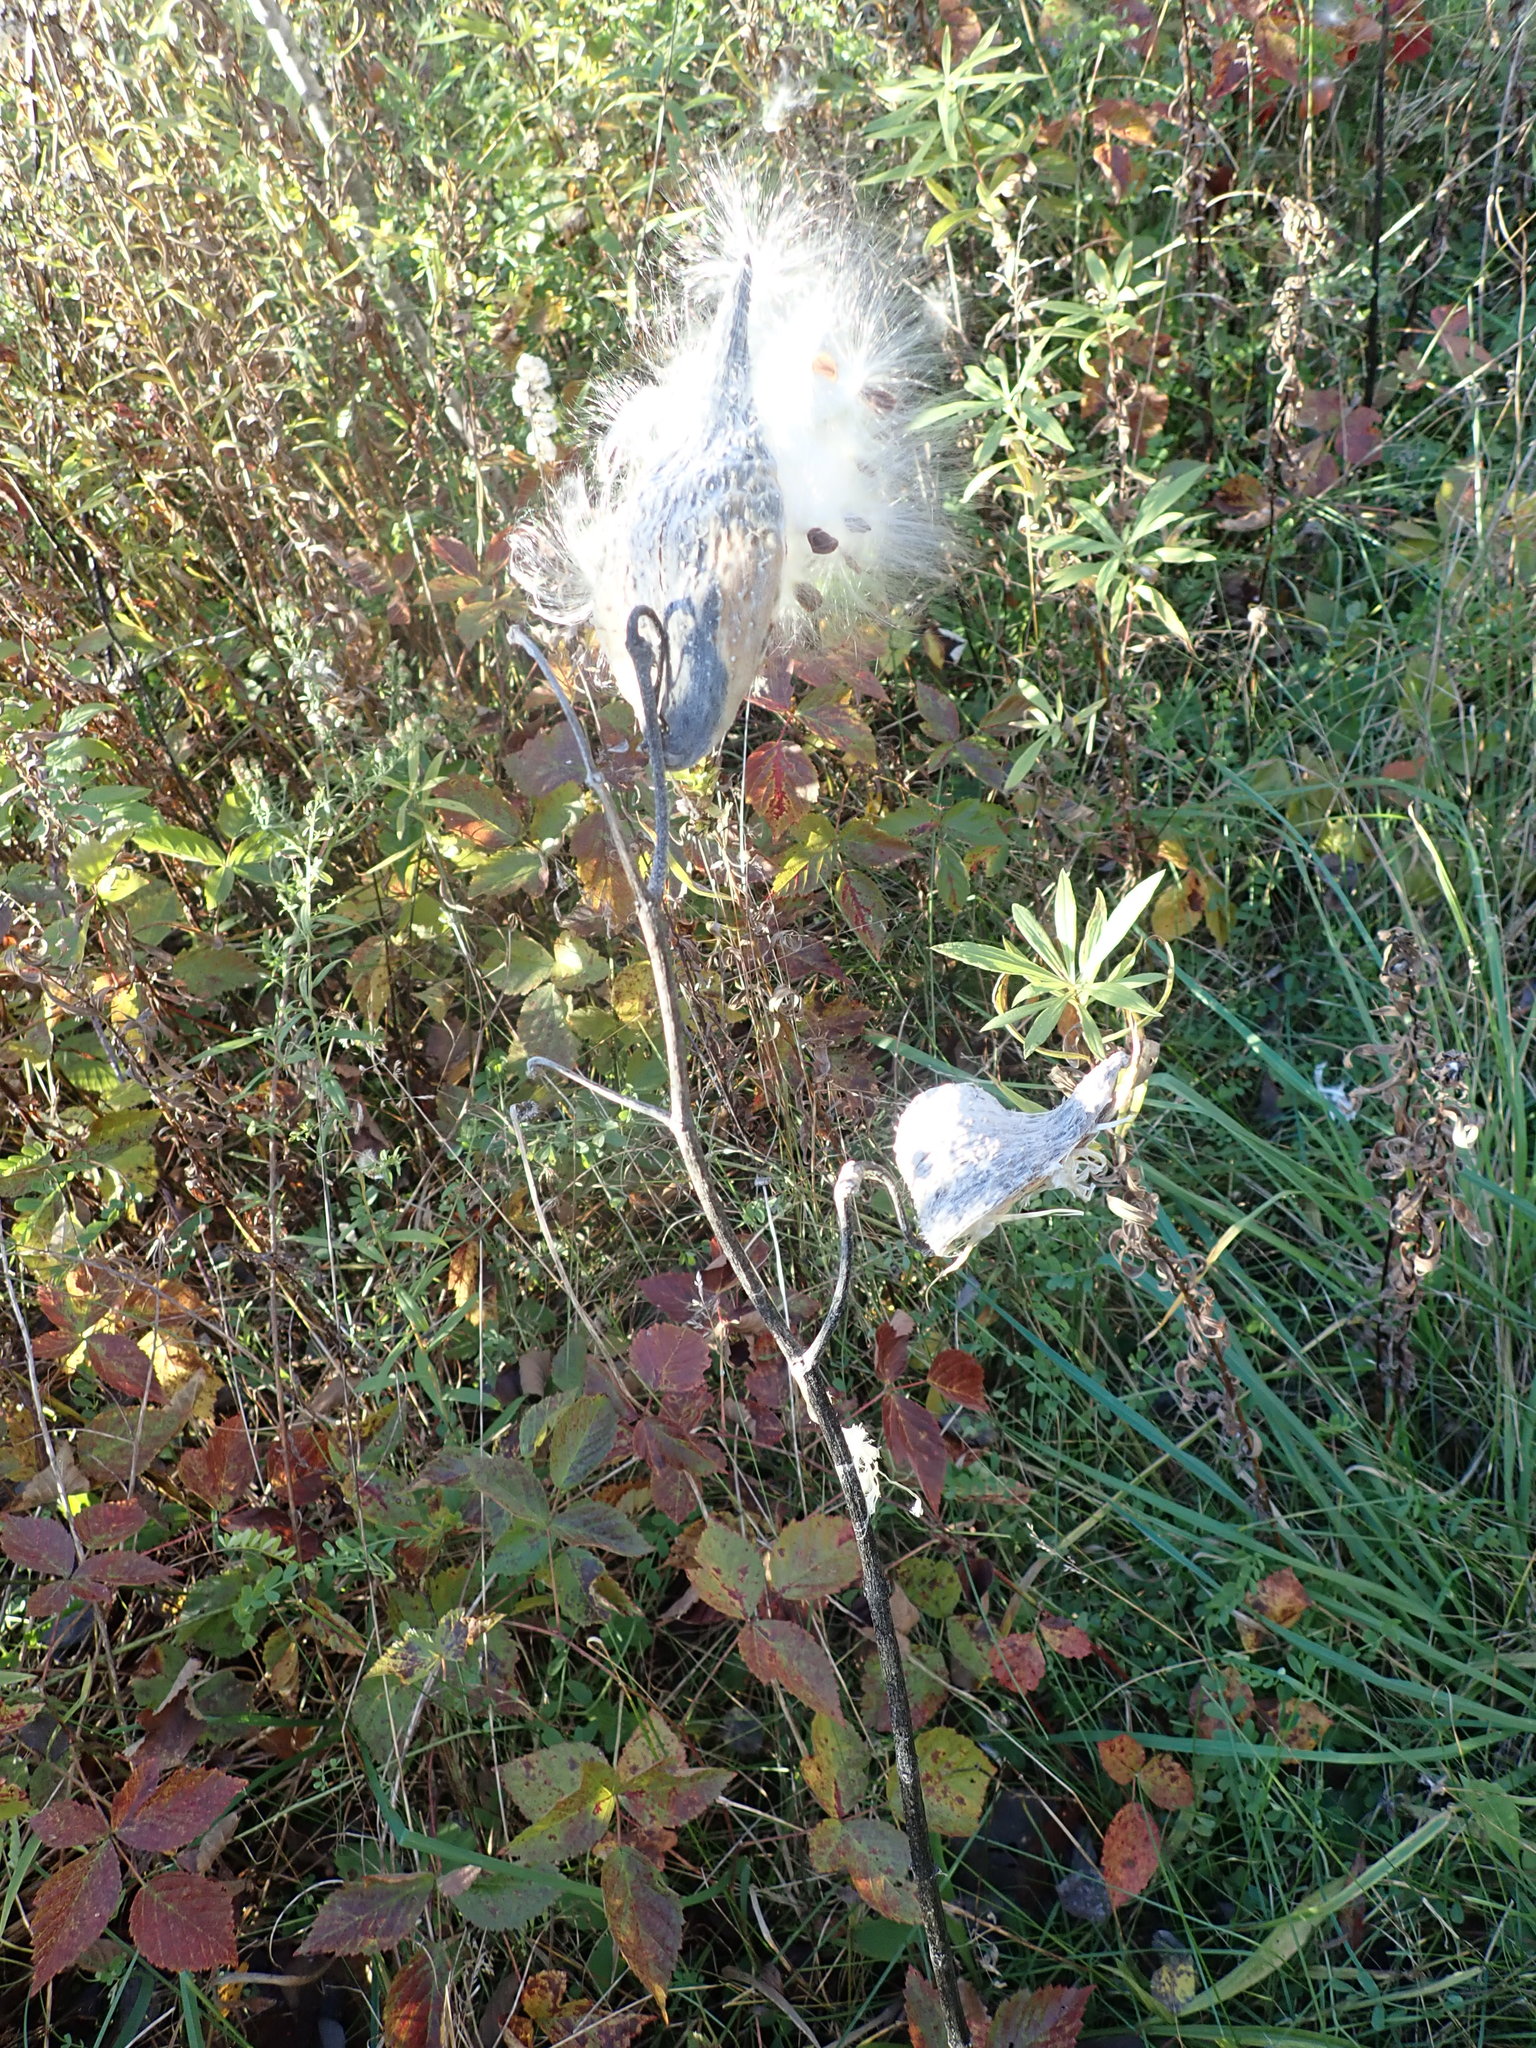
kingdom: Plantae
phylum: Tracheophyta
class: Magnoliopsida
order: Gentianales
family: Apocynaceae
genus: Asclepias
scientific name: Asclepias syriaca
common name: Common milkweed
